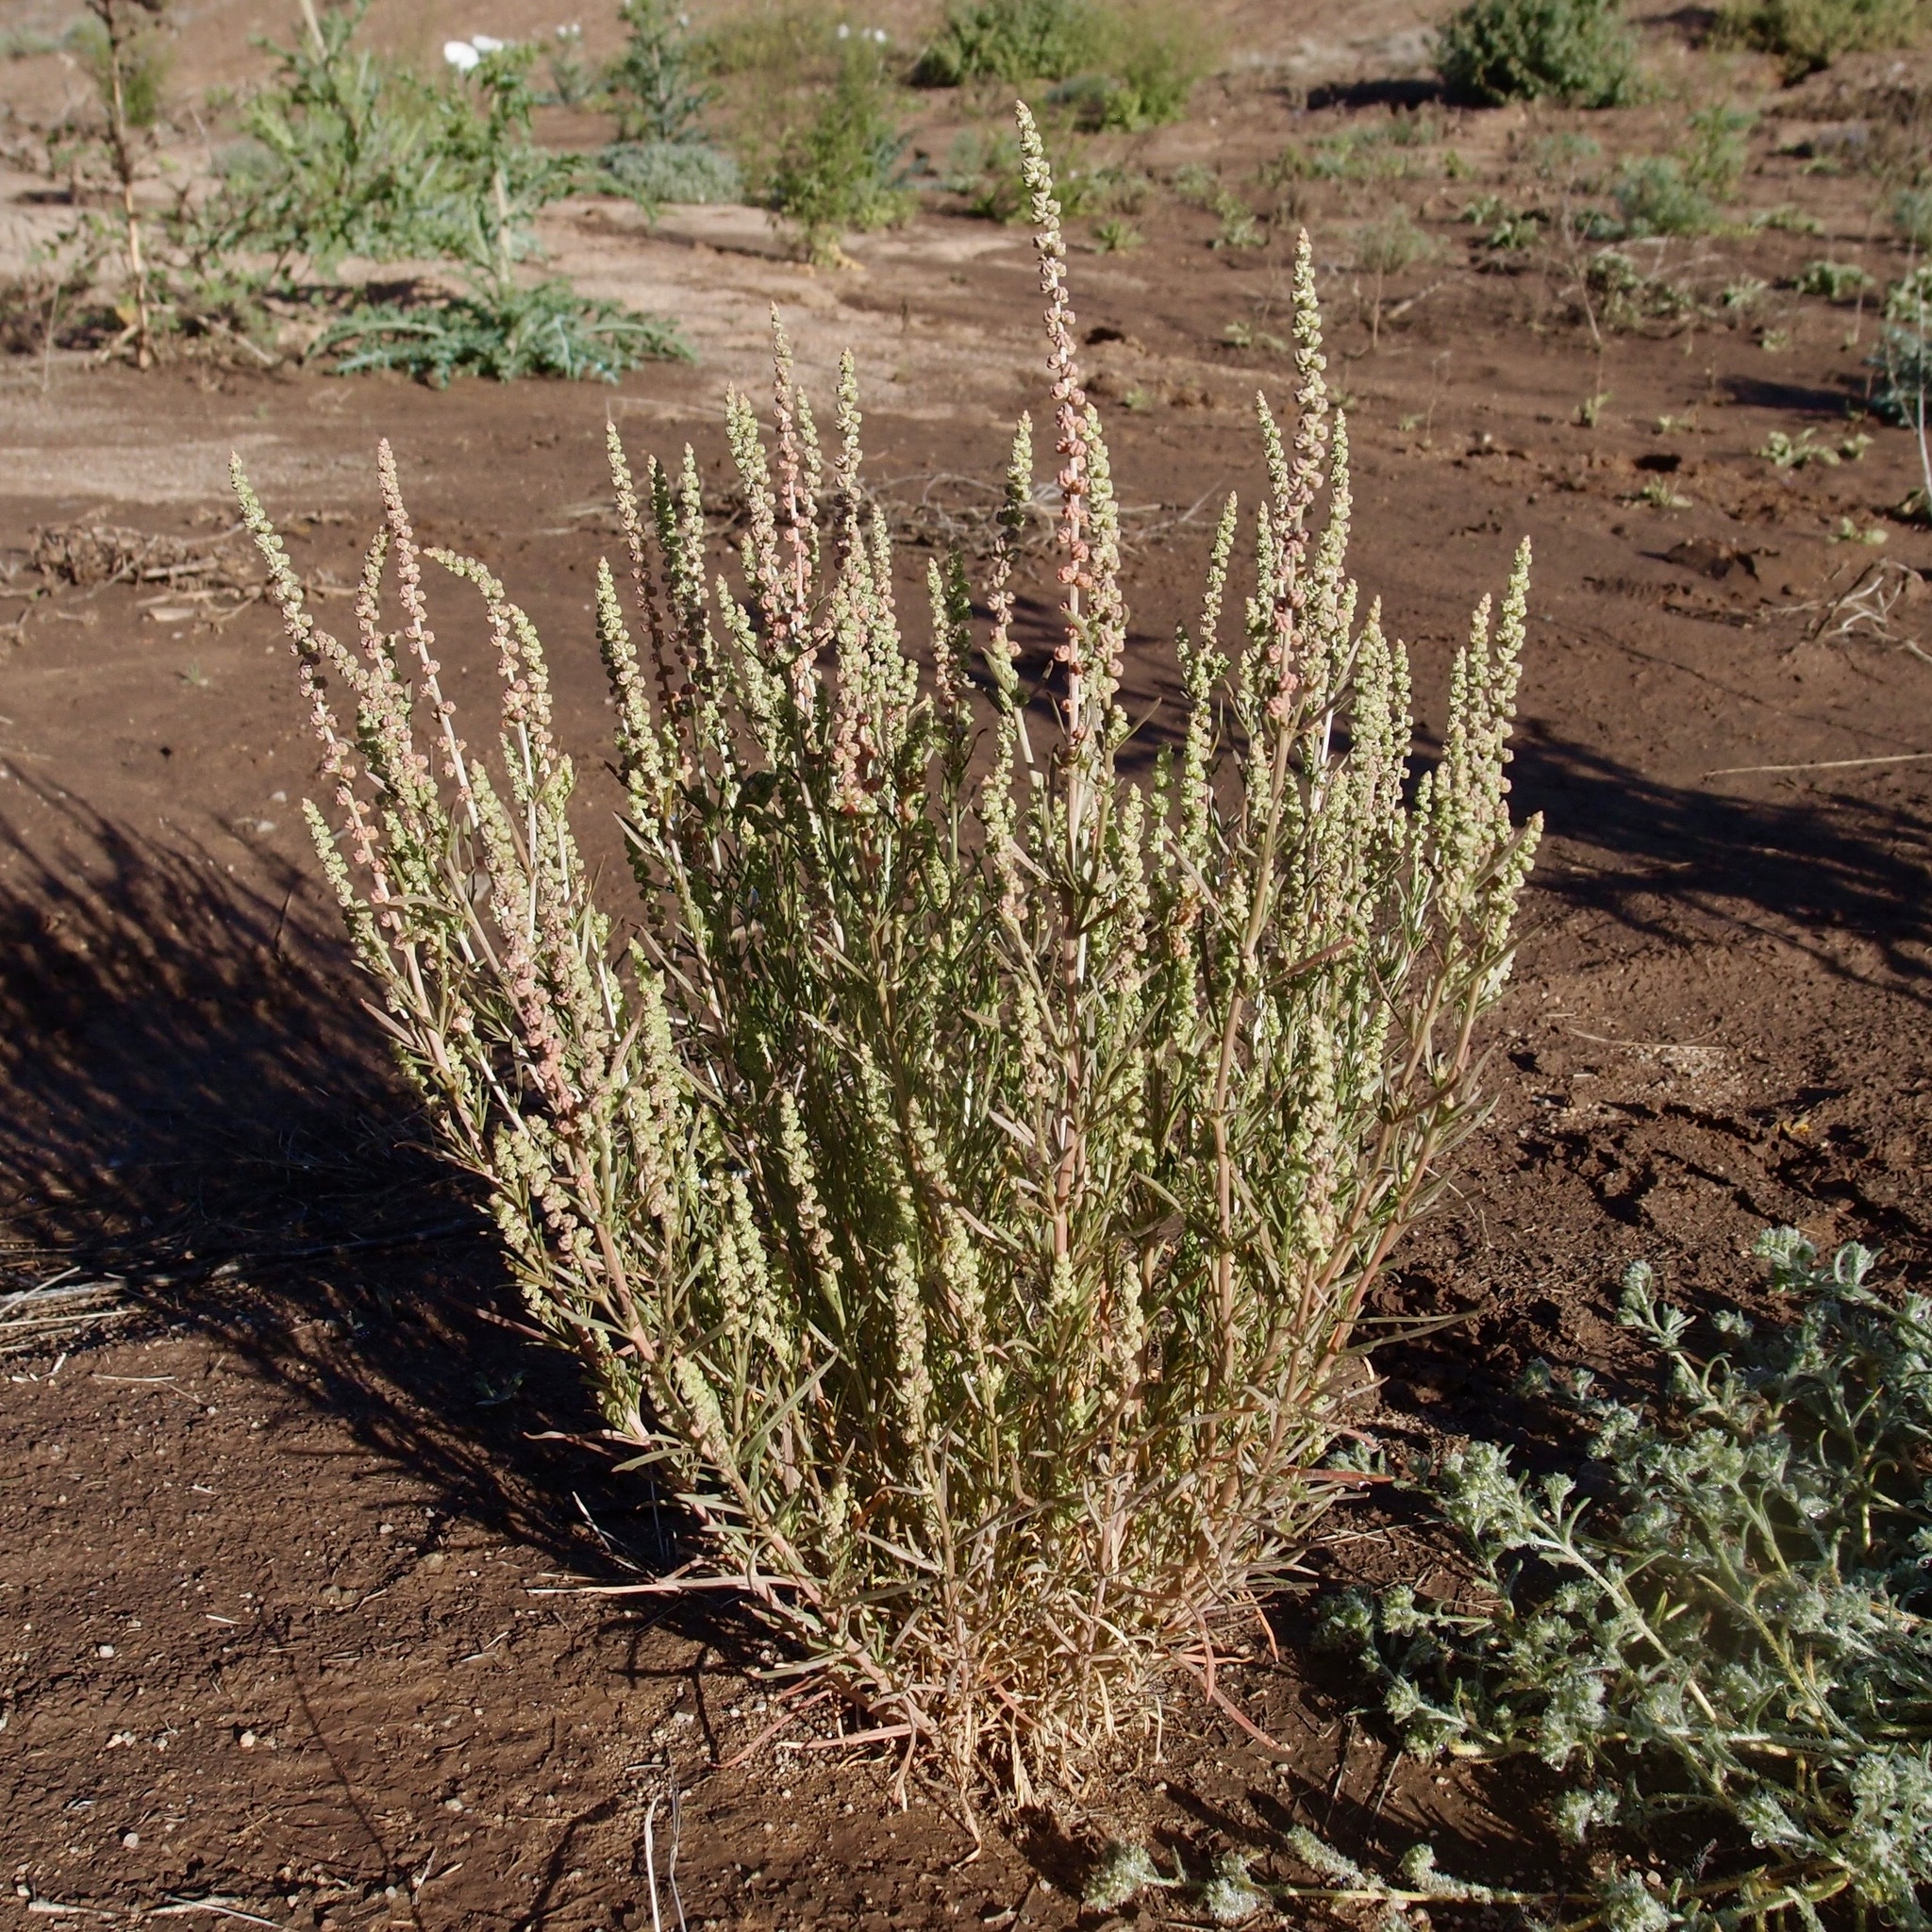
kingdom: Plantae
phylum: Tracheophyta
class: Magnoliopsida
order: Brassicales
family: Resedaceae
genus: Oligomeris
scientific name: Oligomeris linifolia
